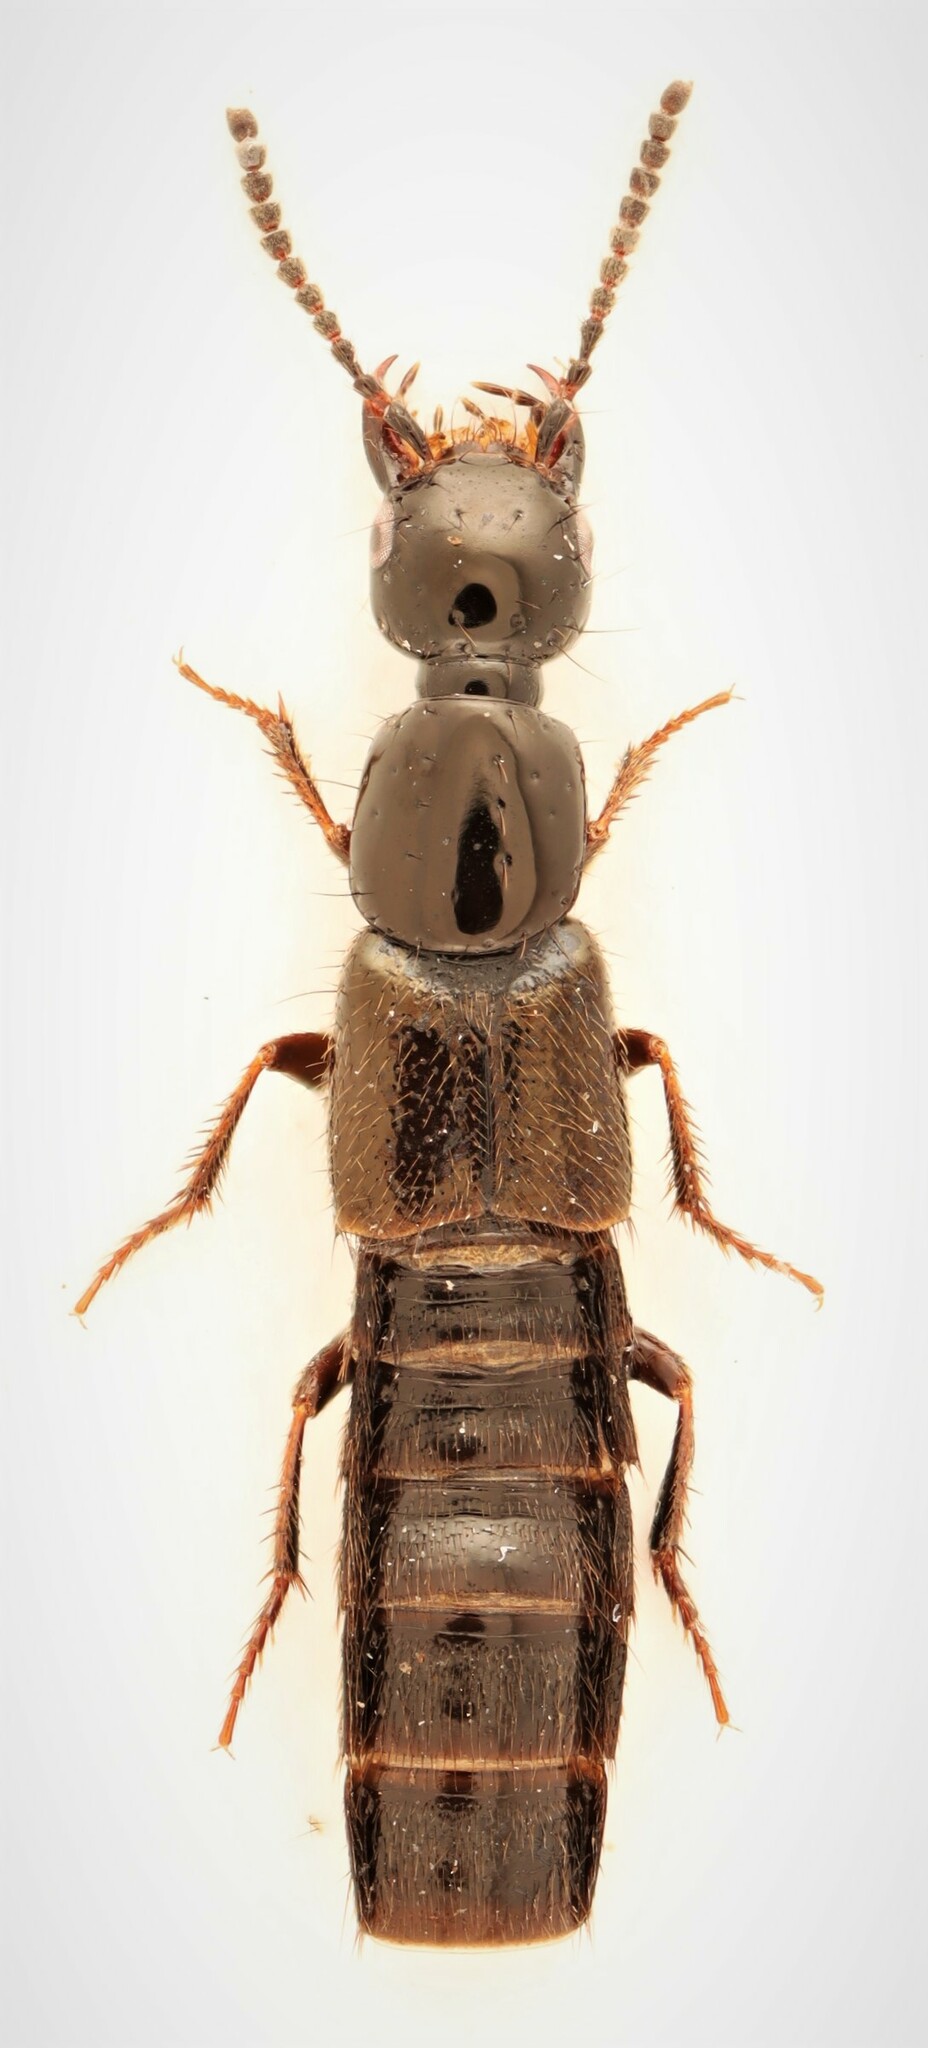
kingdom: Animalia
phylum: Arthropoda
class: Insecta
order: Coleoptera
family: Staphylinidae
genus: Bisnius
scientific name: Bisnius sordidus
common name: Staph beetle
